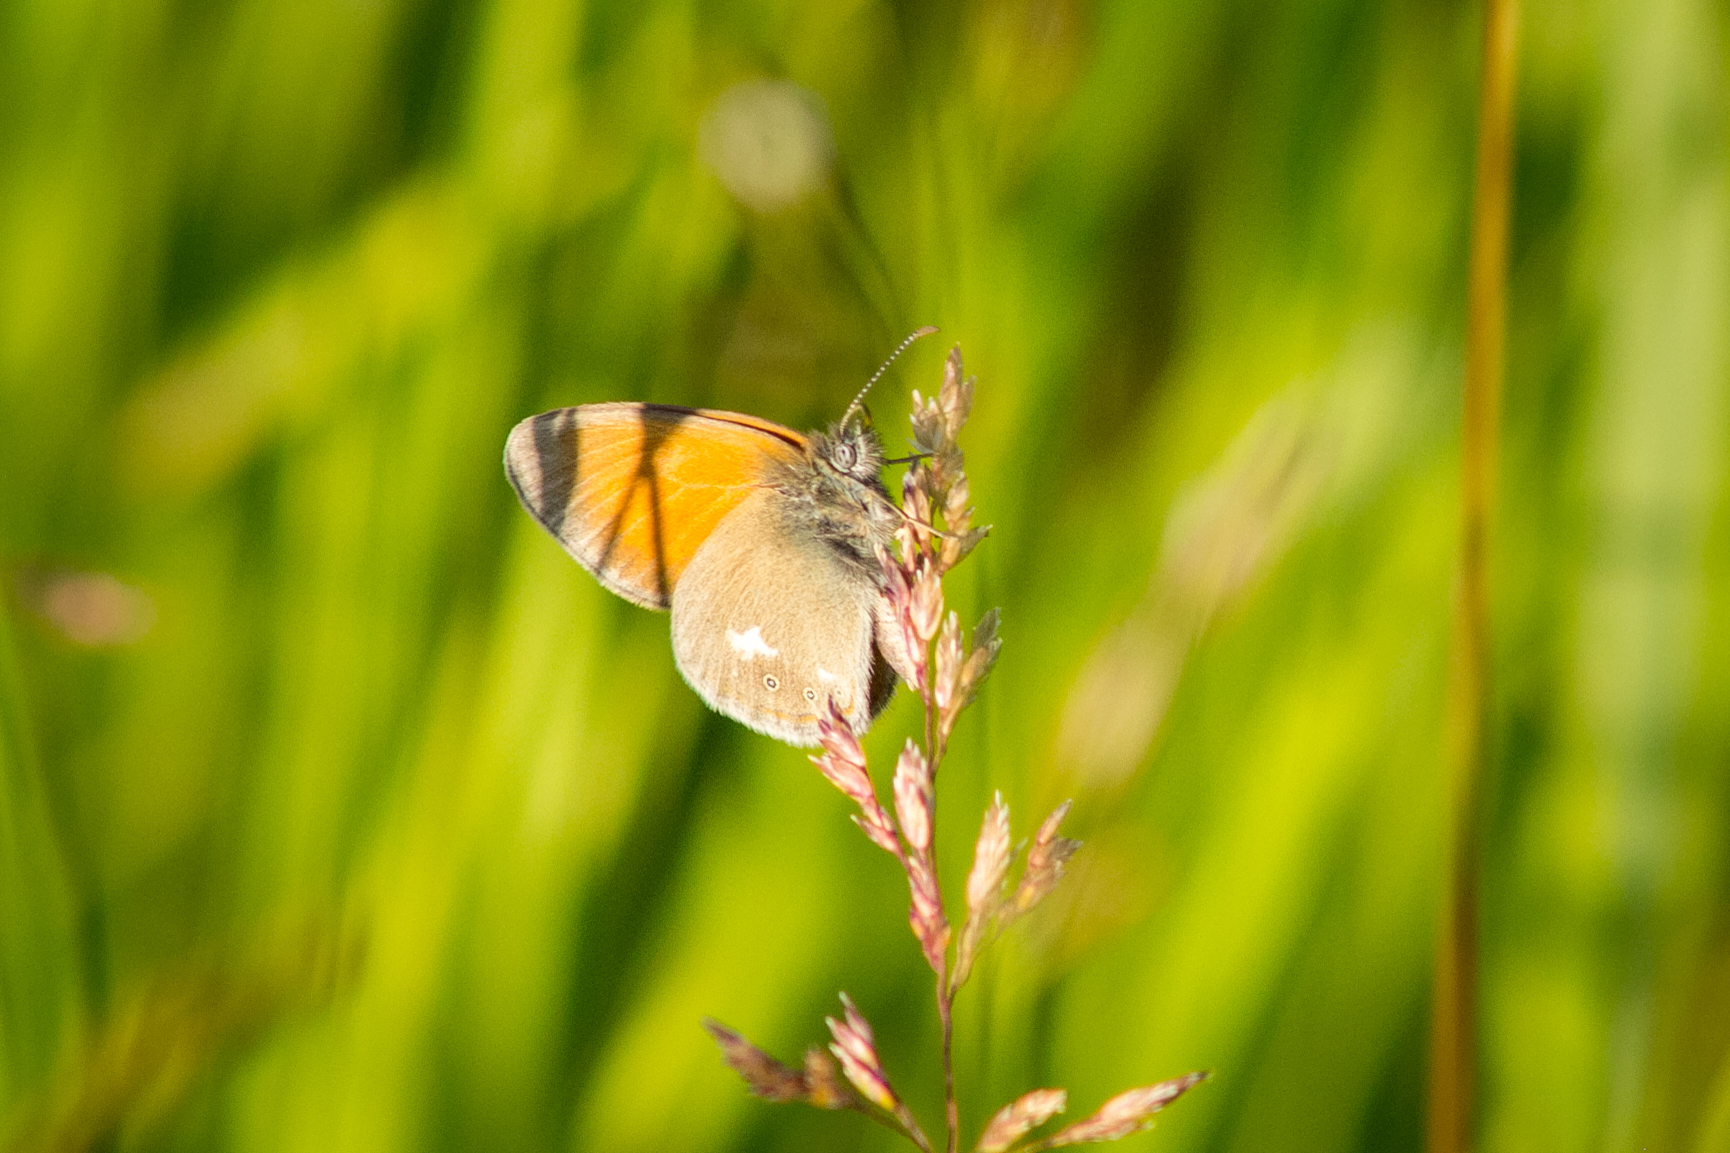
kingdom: Animalia
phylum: Arthropoda
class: Insecta
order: Lepidoptera
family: Nymphalidae
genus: Coenonympha
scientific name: Coenonympha iphis
